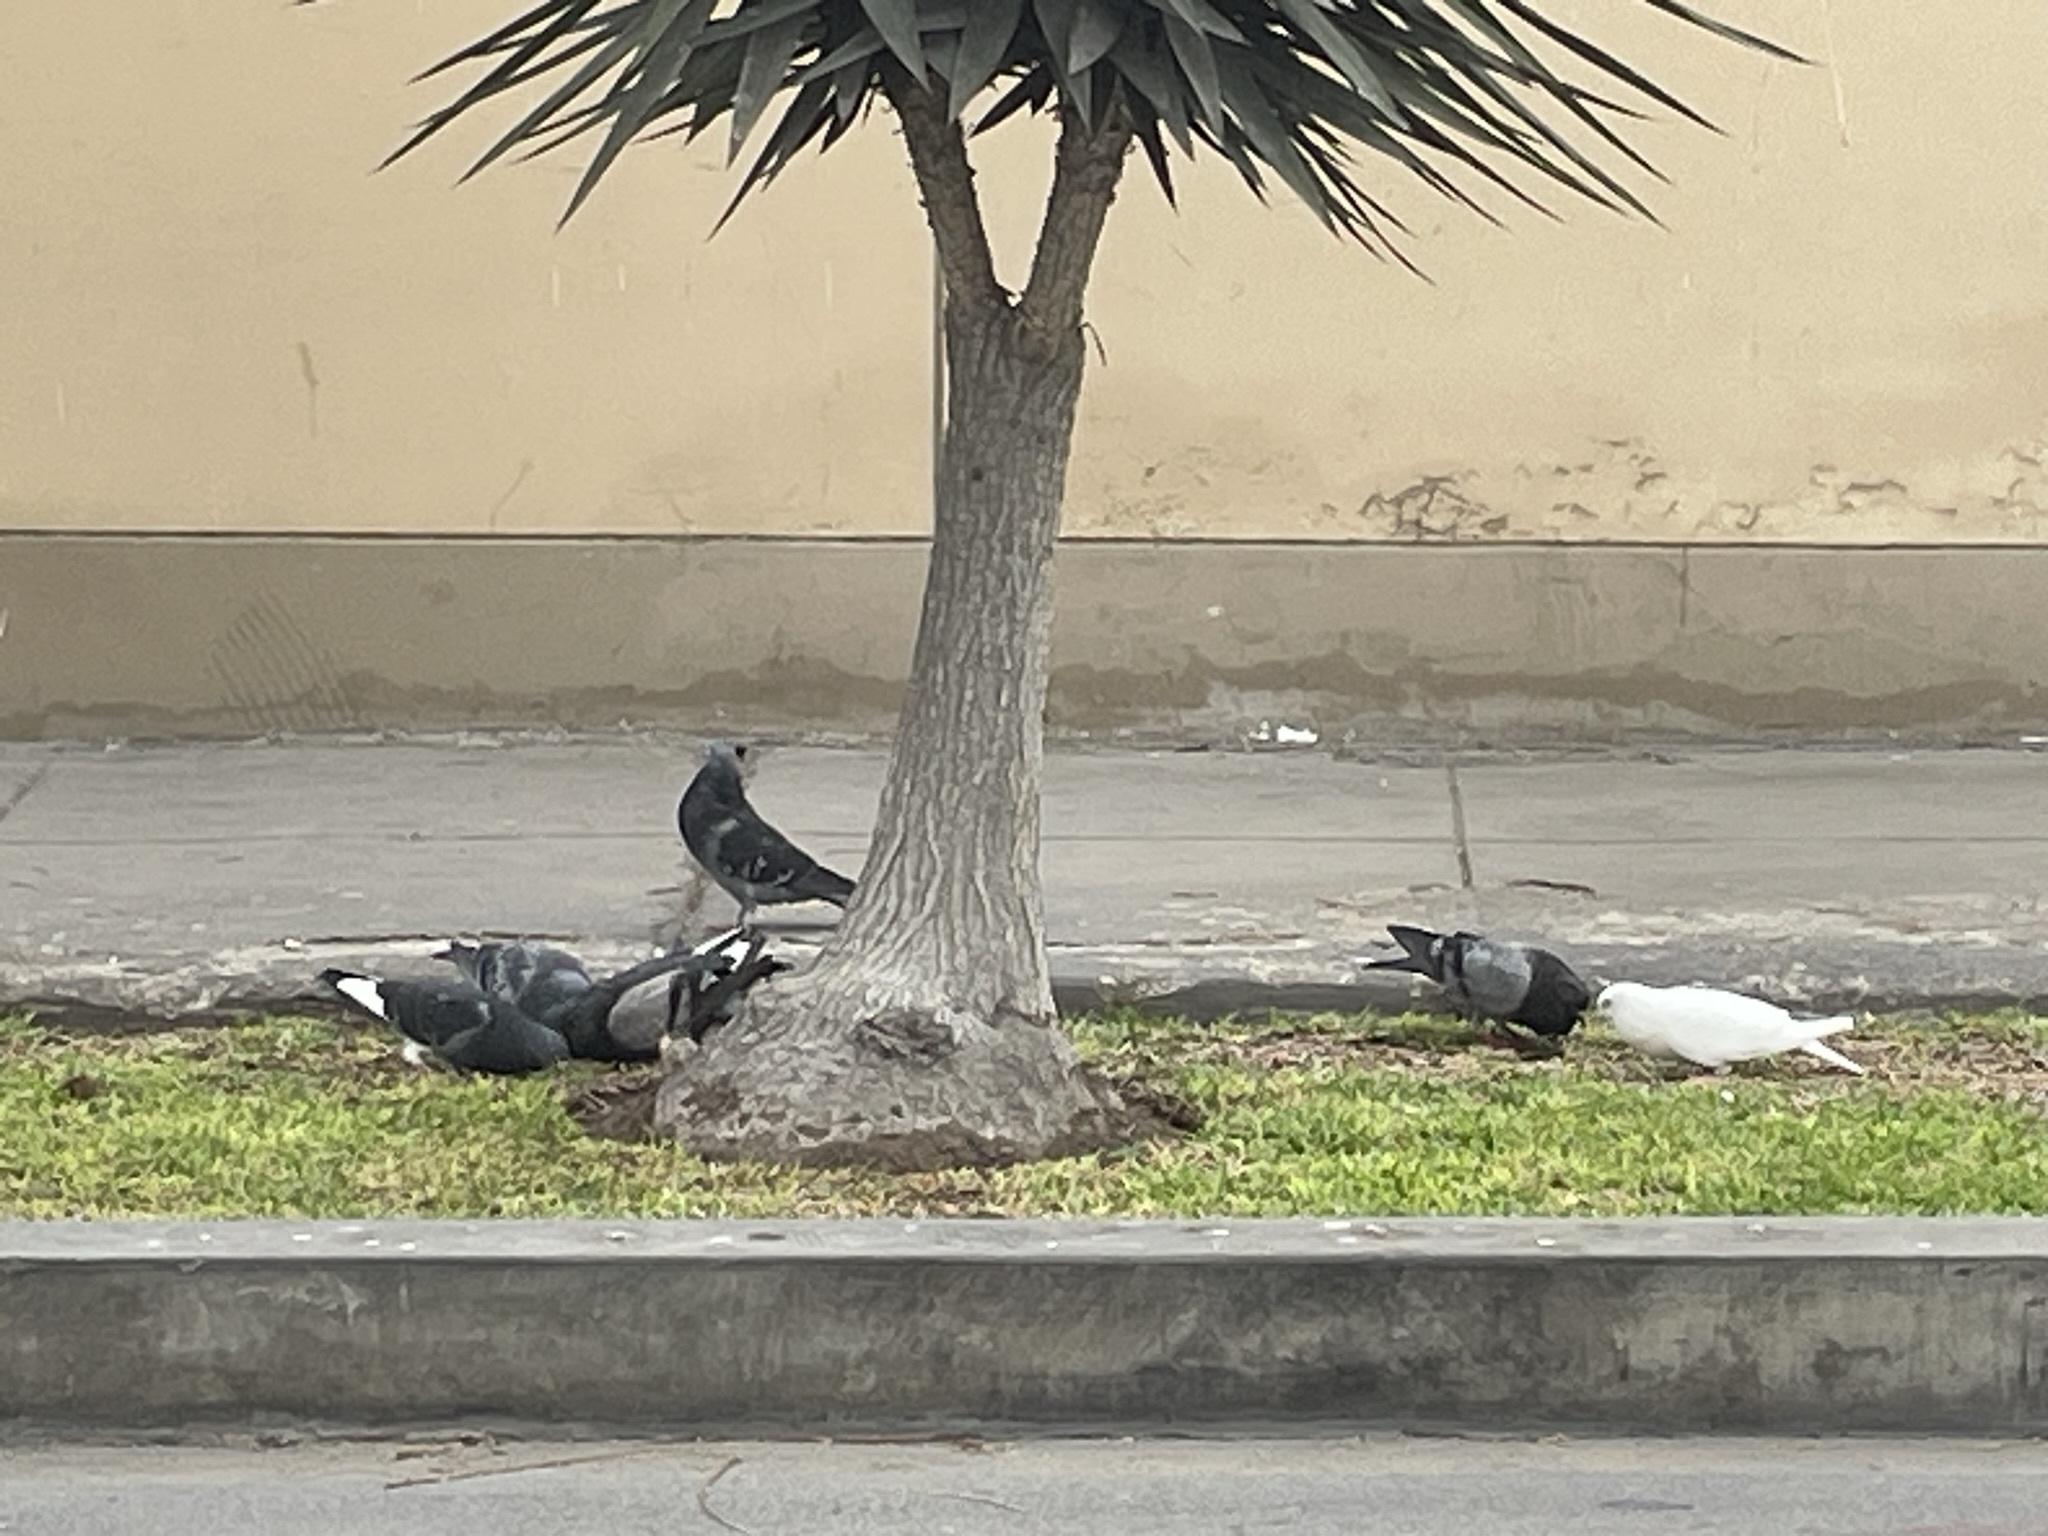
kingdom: Animalia
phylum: Chordata
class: Aves
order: Columbiformes
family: Columbidae
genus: Columba
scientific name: Columba livia
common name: Rock pigeon
